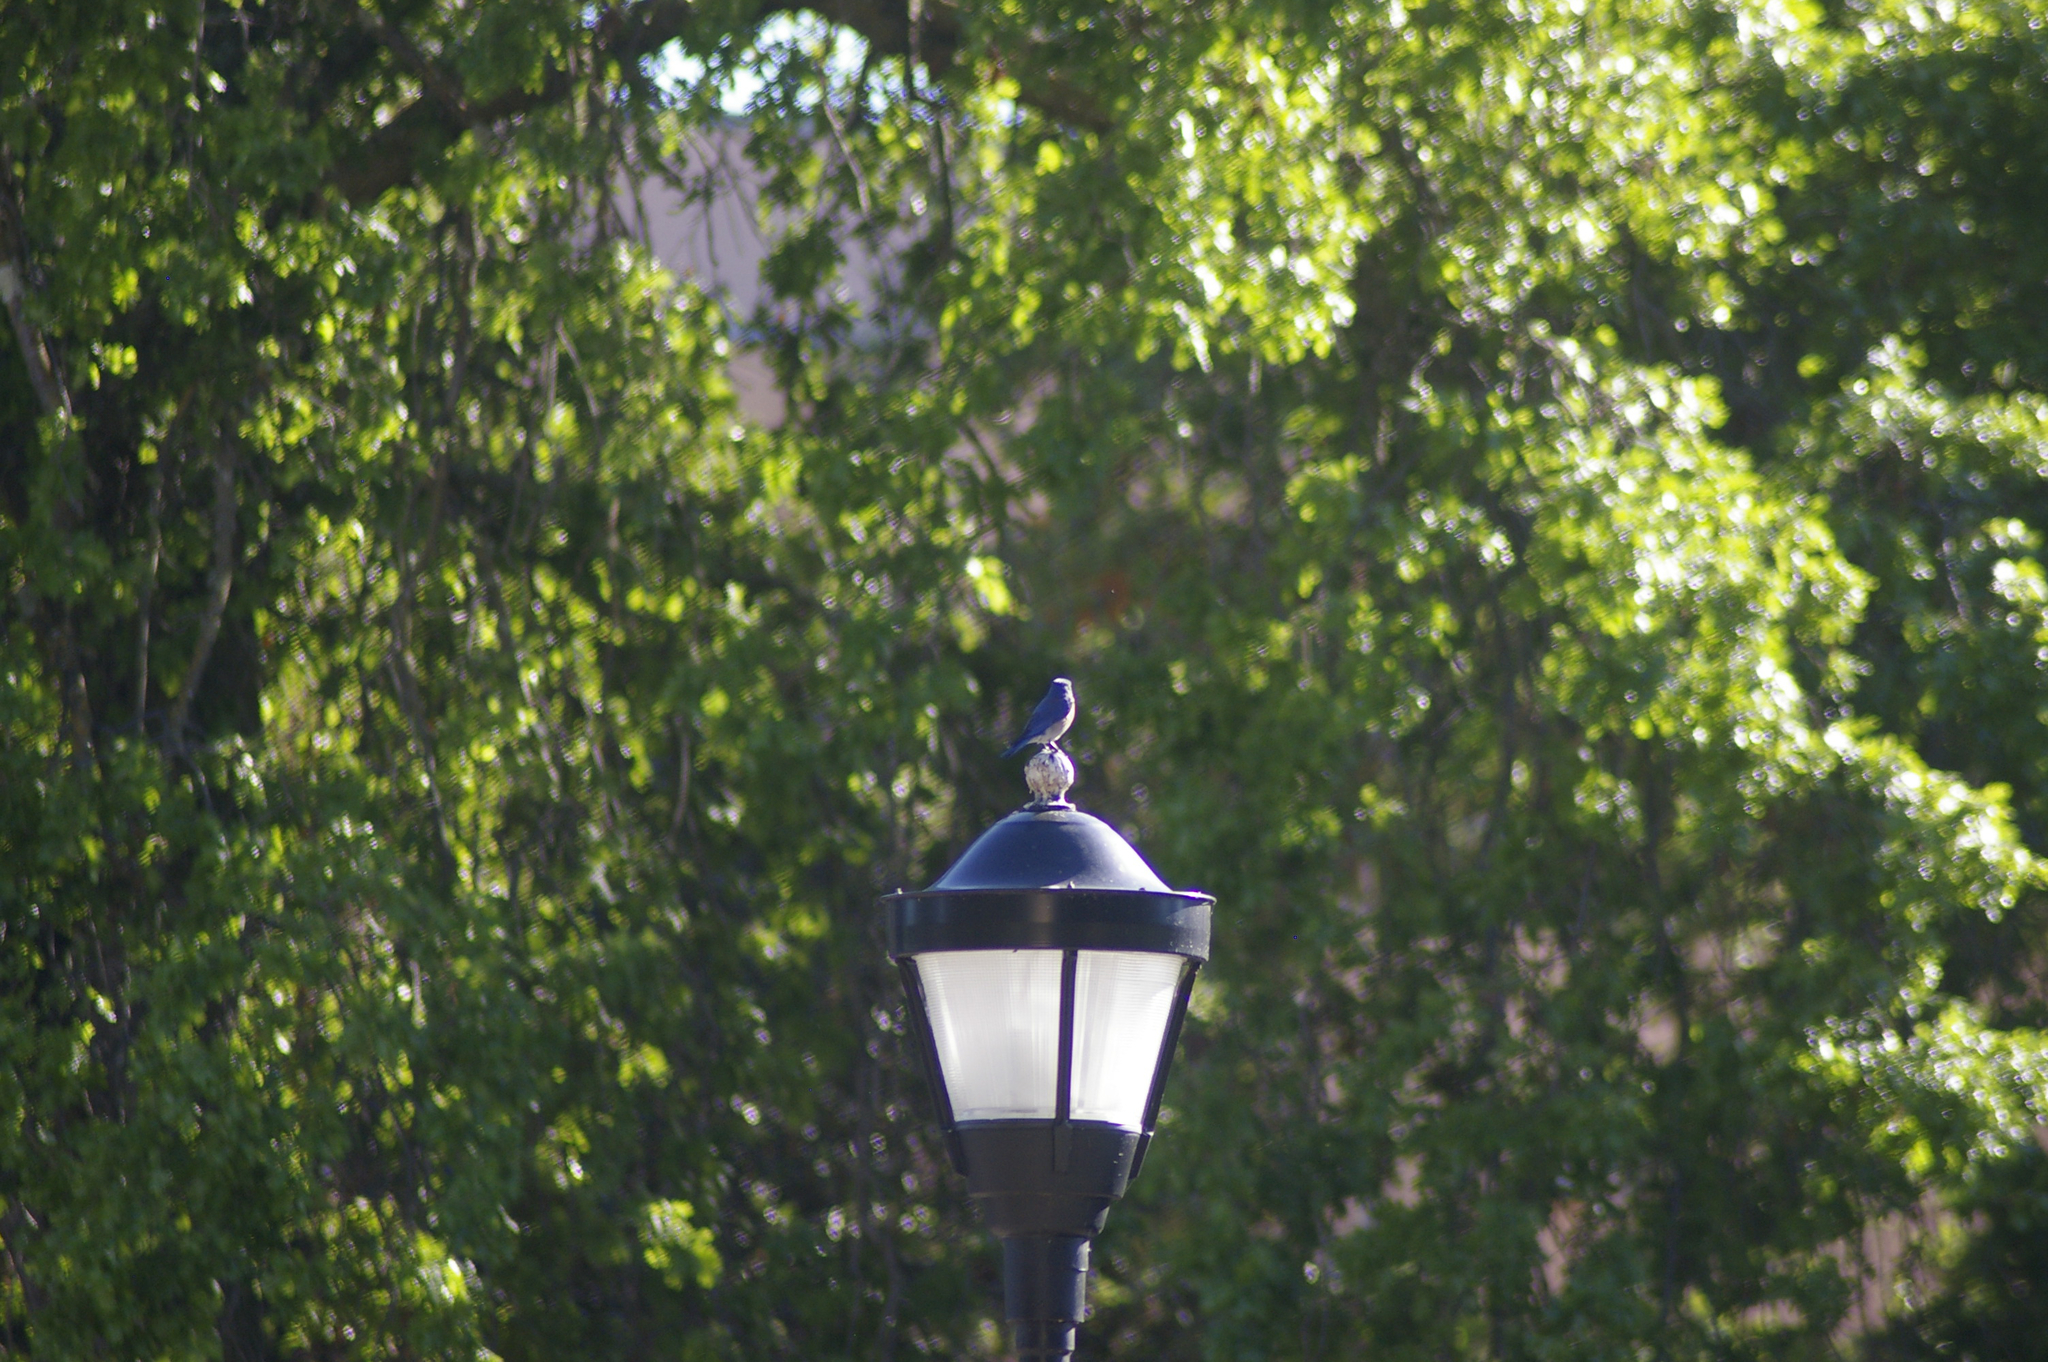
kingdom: Animalia
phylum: Chordata
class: Aves
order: Passeriformes
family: Turdidae
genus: Sialia
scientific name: Sialia mexicana
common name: Western bluebird
